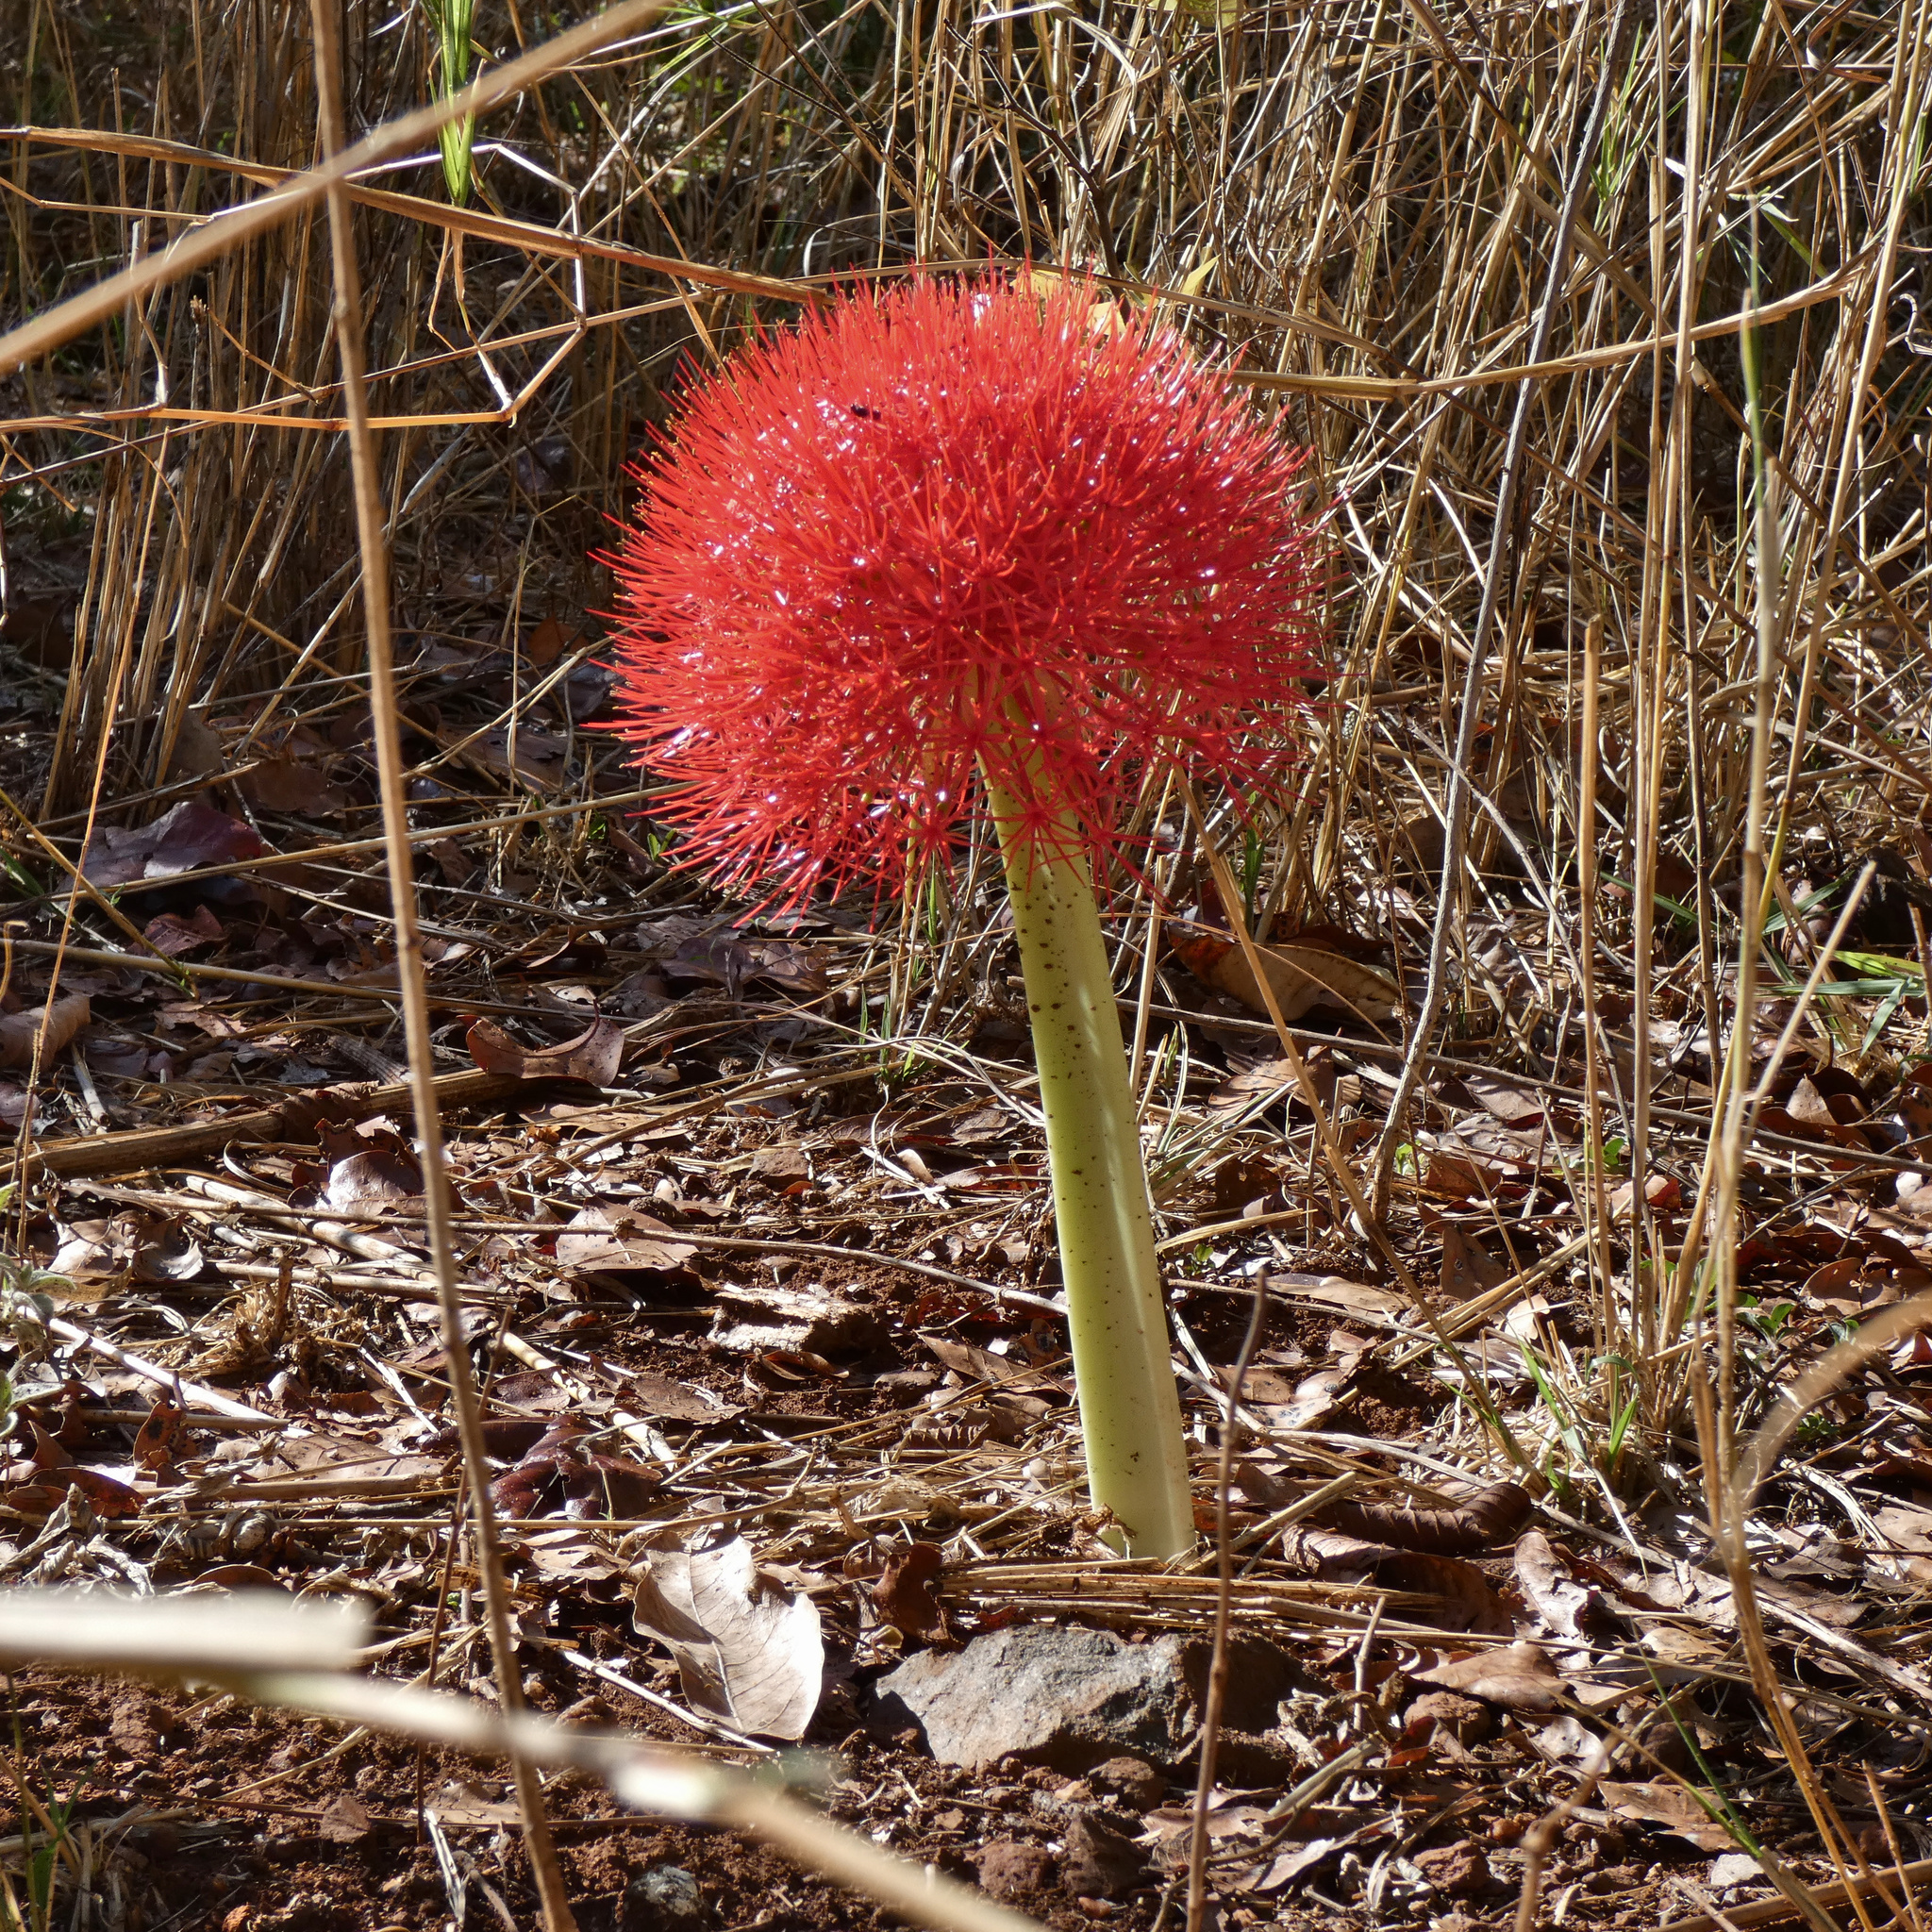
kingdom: Plantae
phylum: Tracheophyta
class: Liliopsida
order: Asparagales
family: Amaryllidaceae
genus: Scadoxus
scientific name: Scadoxus multiflorus
